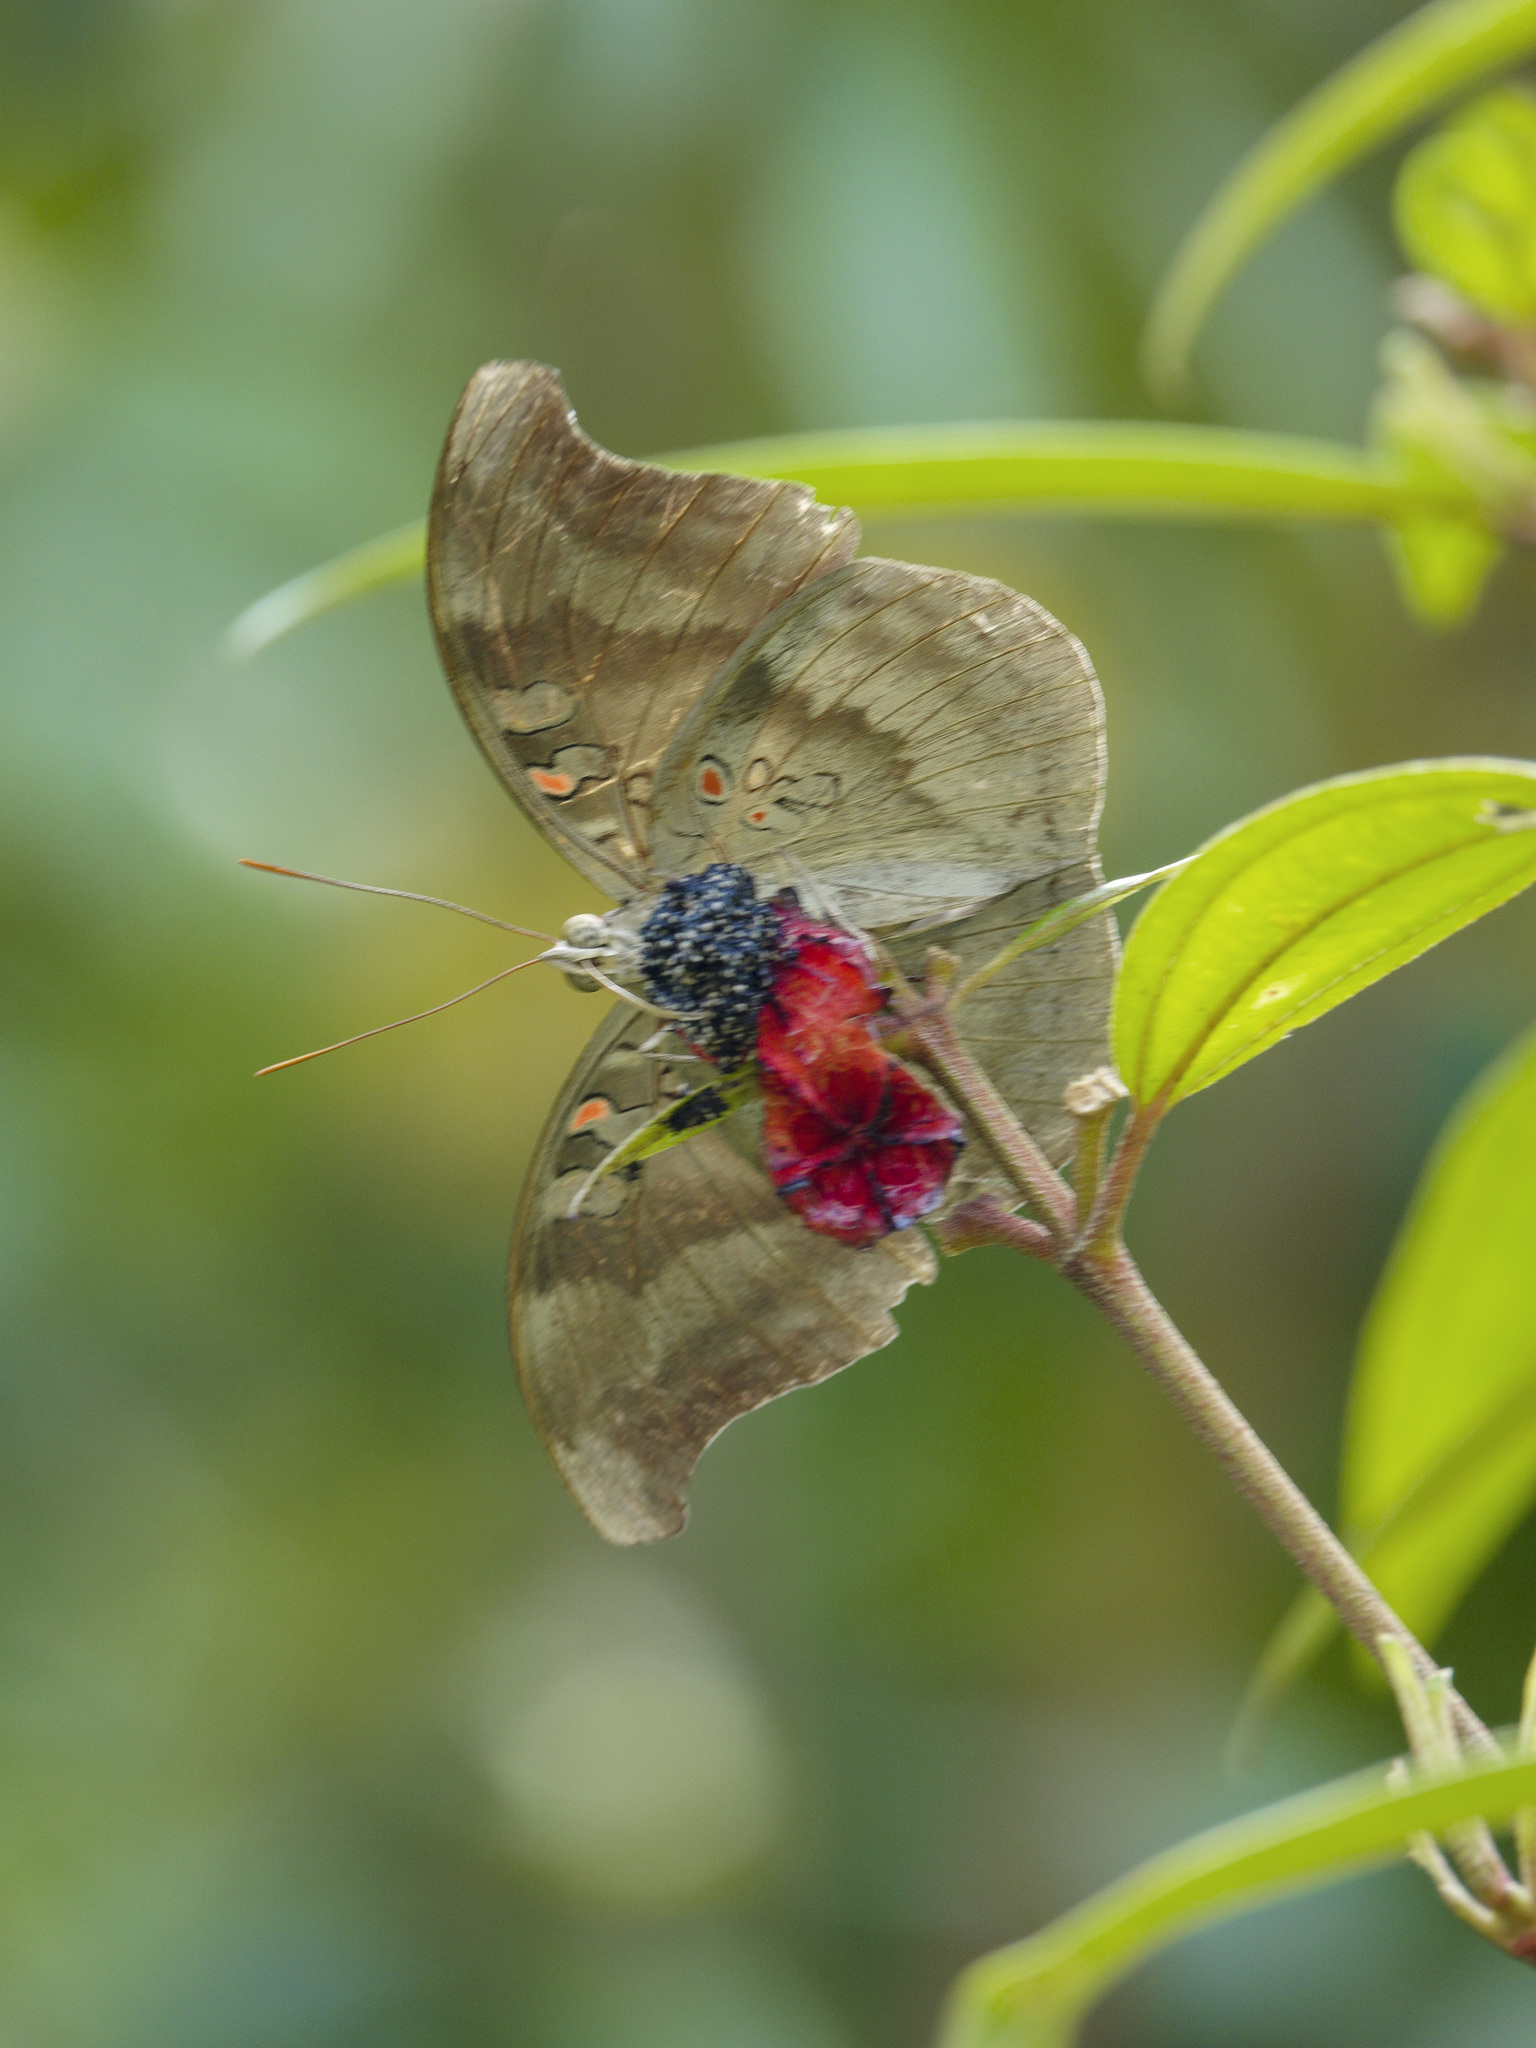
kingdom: Animalia
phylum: Arthropoda
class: Insecta
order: Lepidoptera
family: Nymphalidae
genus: Euthalia
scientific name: Euthalia Dophla evelina
